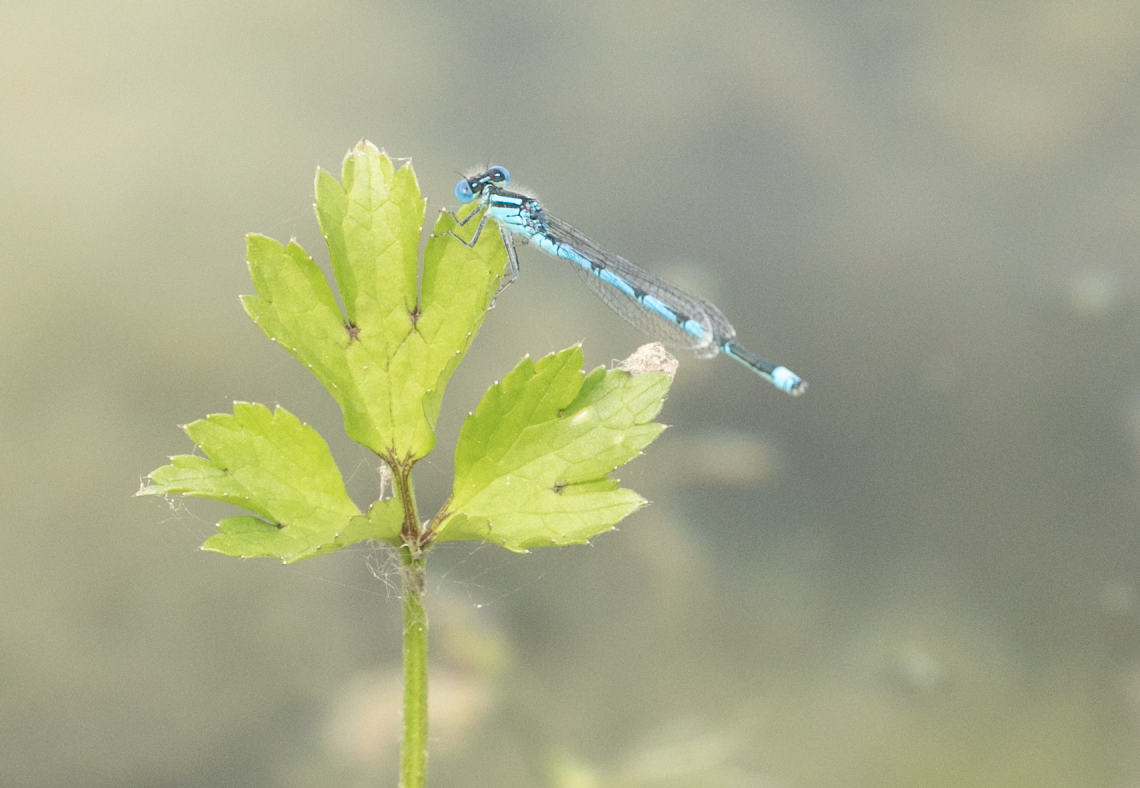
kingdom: Animalia
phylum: Arthropoda
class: Insecta
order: Odonata
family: Coenagrionidae
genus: Erythromma
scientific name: Erythromma lindenii
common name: Blue-eye
